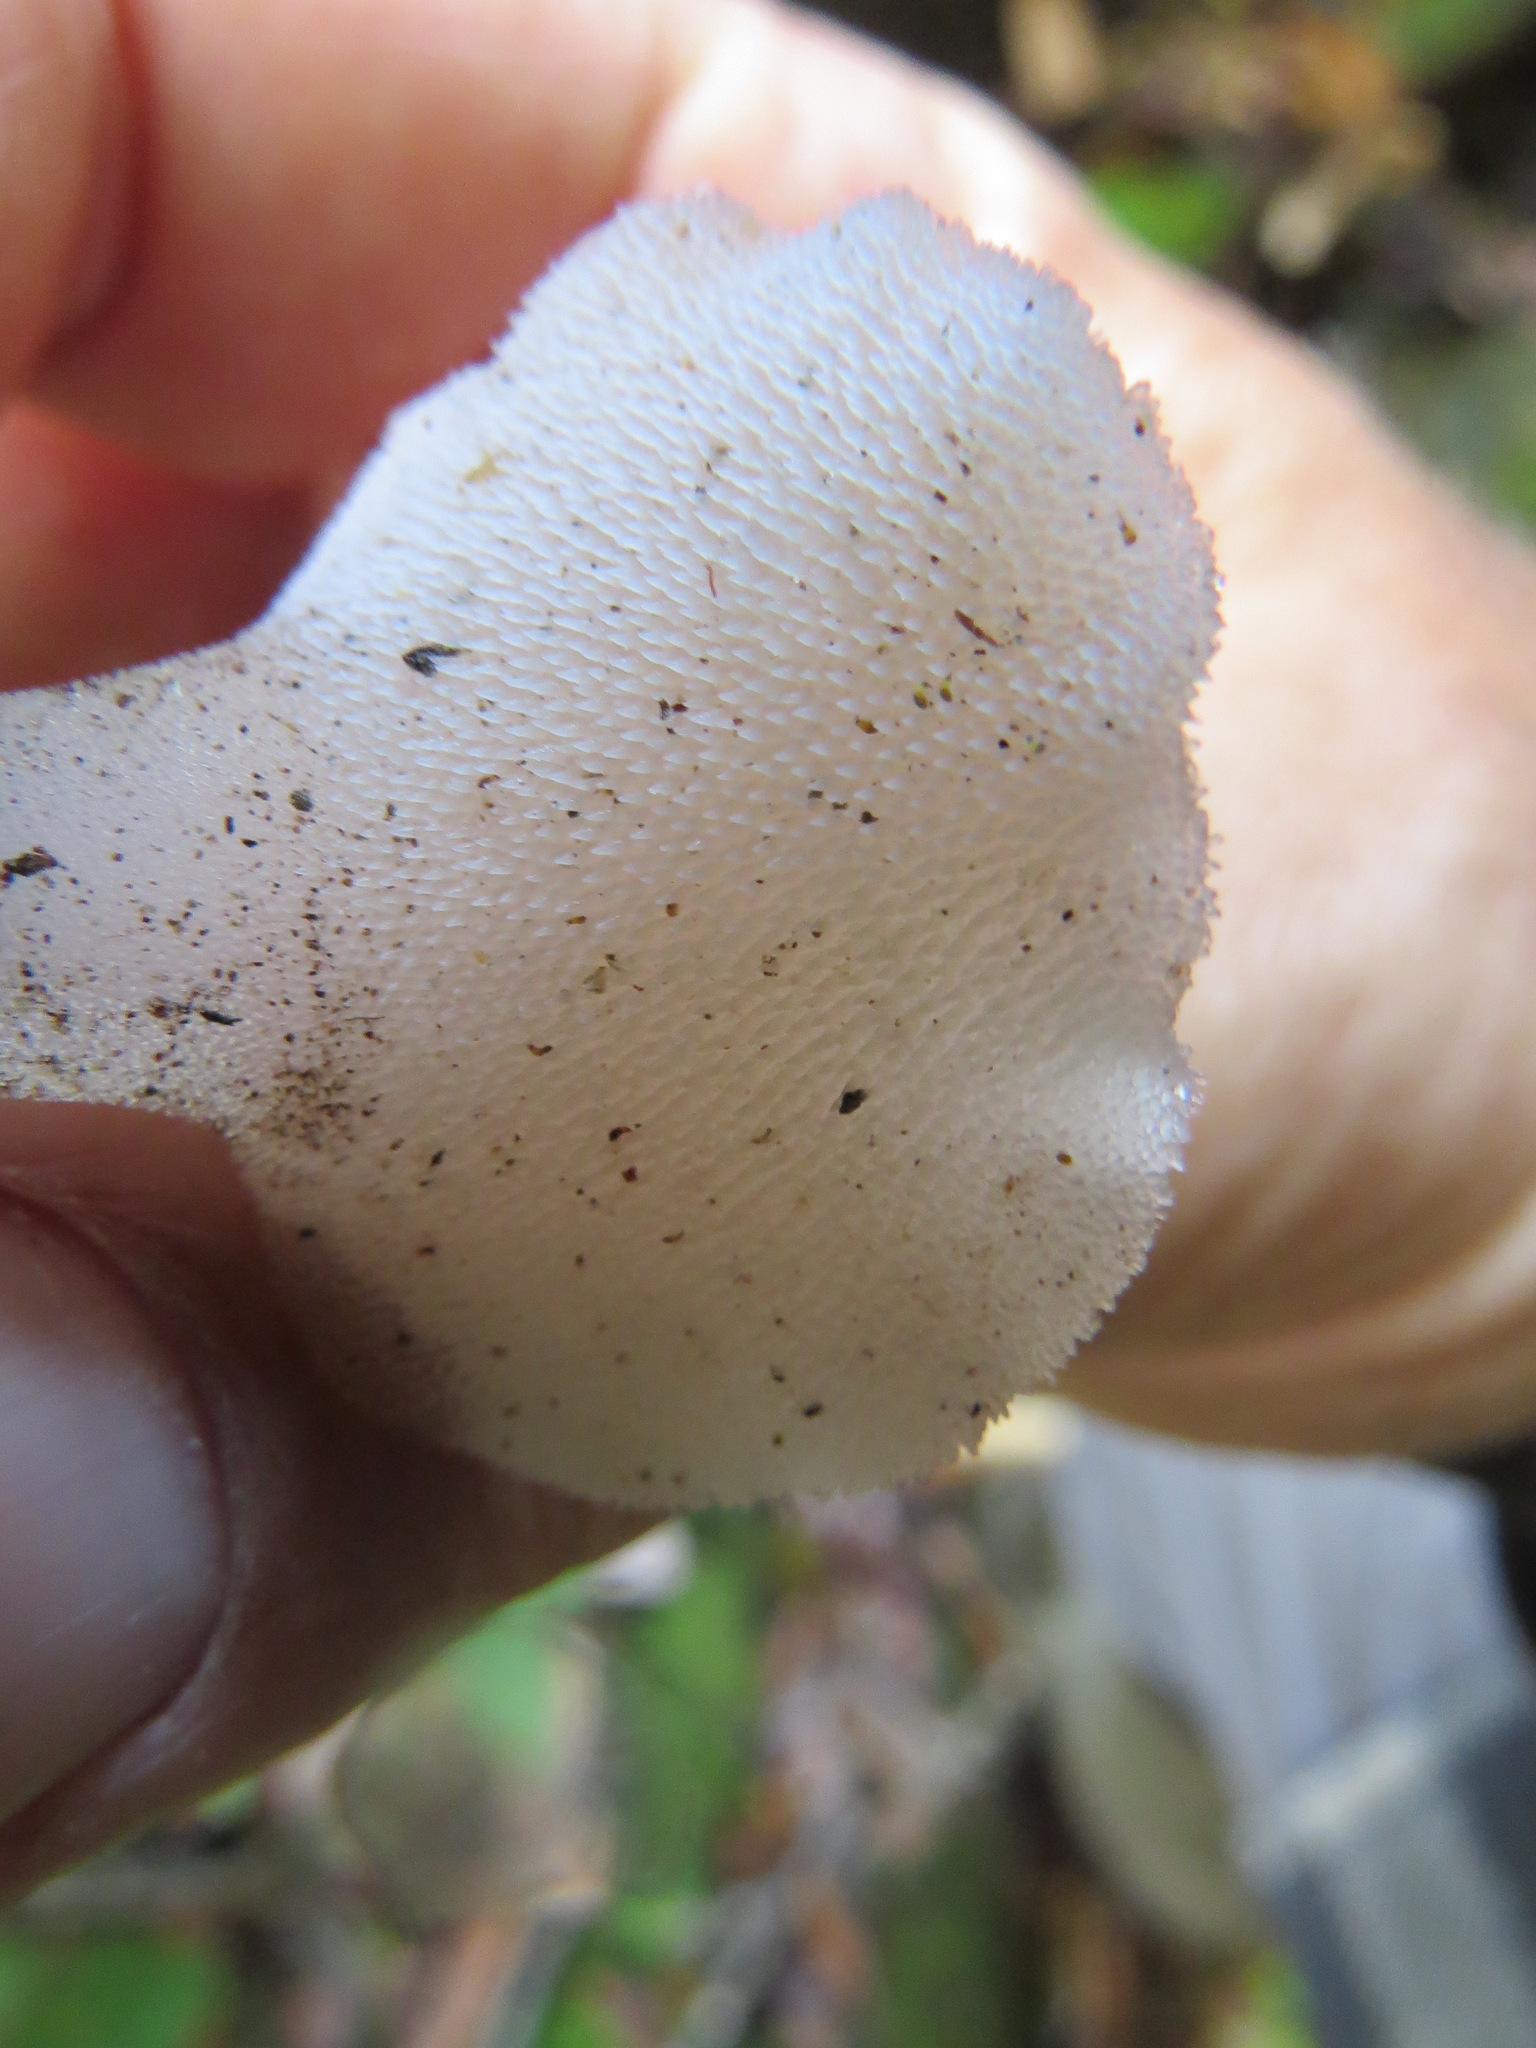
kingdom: Fungi
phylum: Basidiomycota
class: Agaricomycetes
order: Auriculariales
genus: Pseudohydnum
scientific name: Pseudohydnum gelatinosum
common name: Jelly tongue
